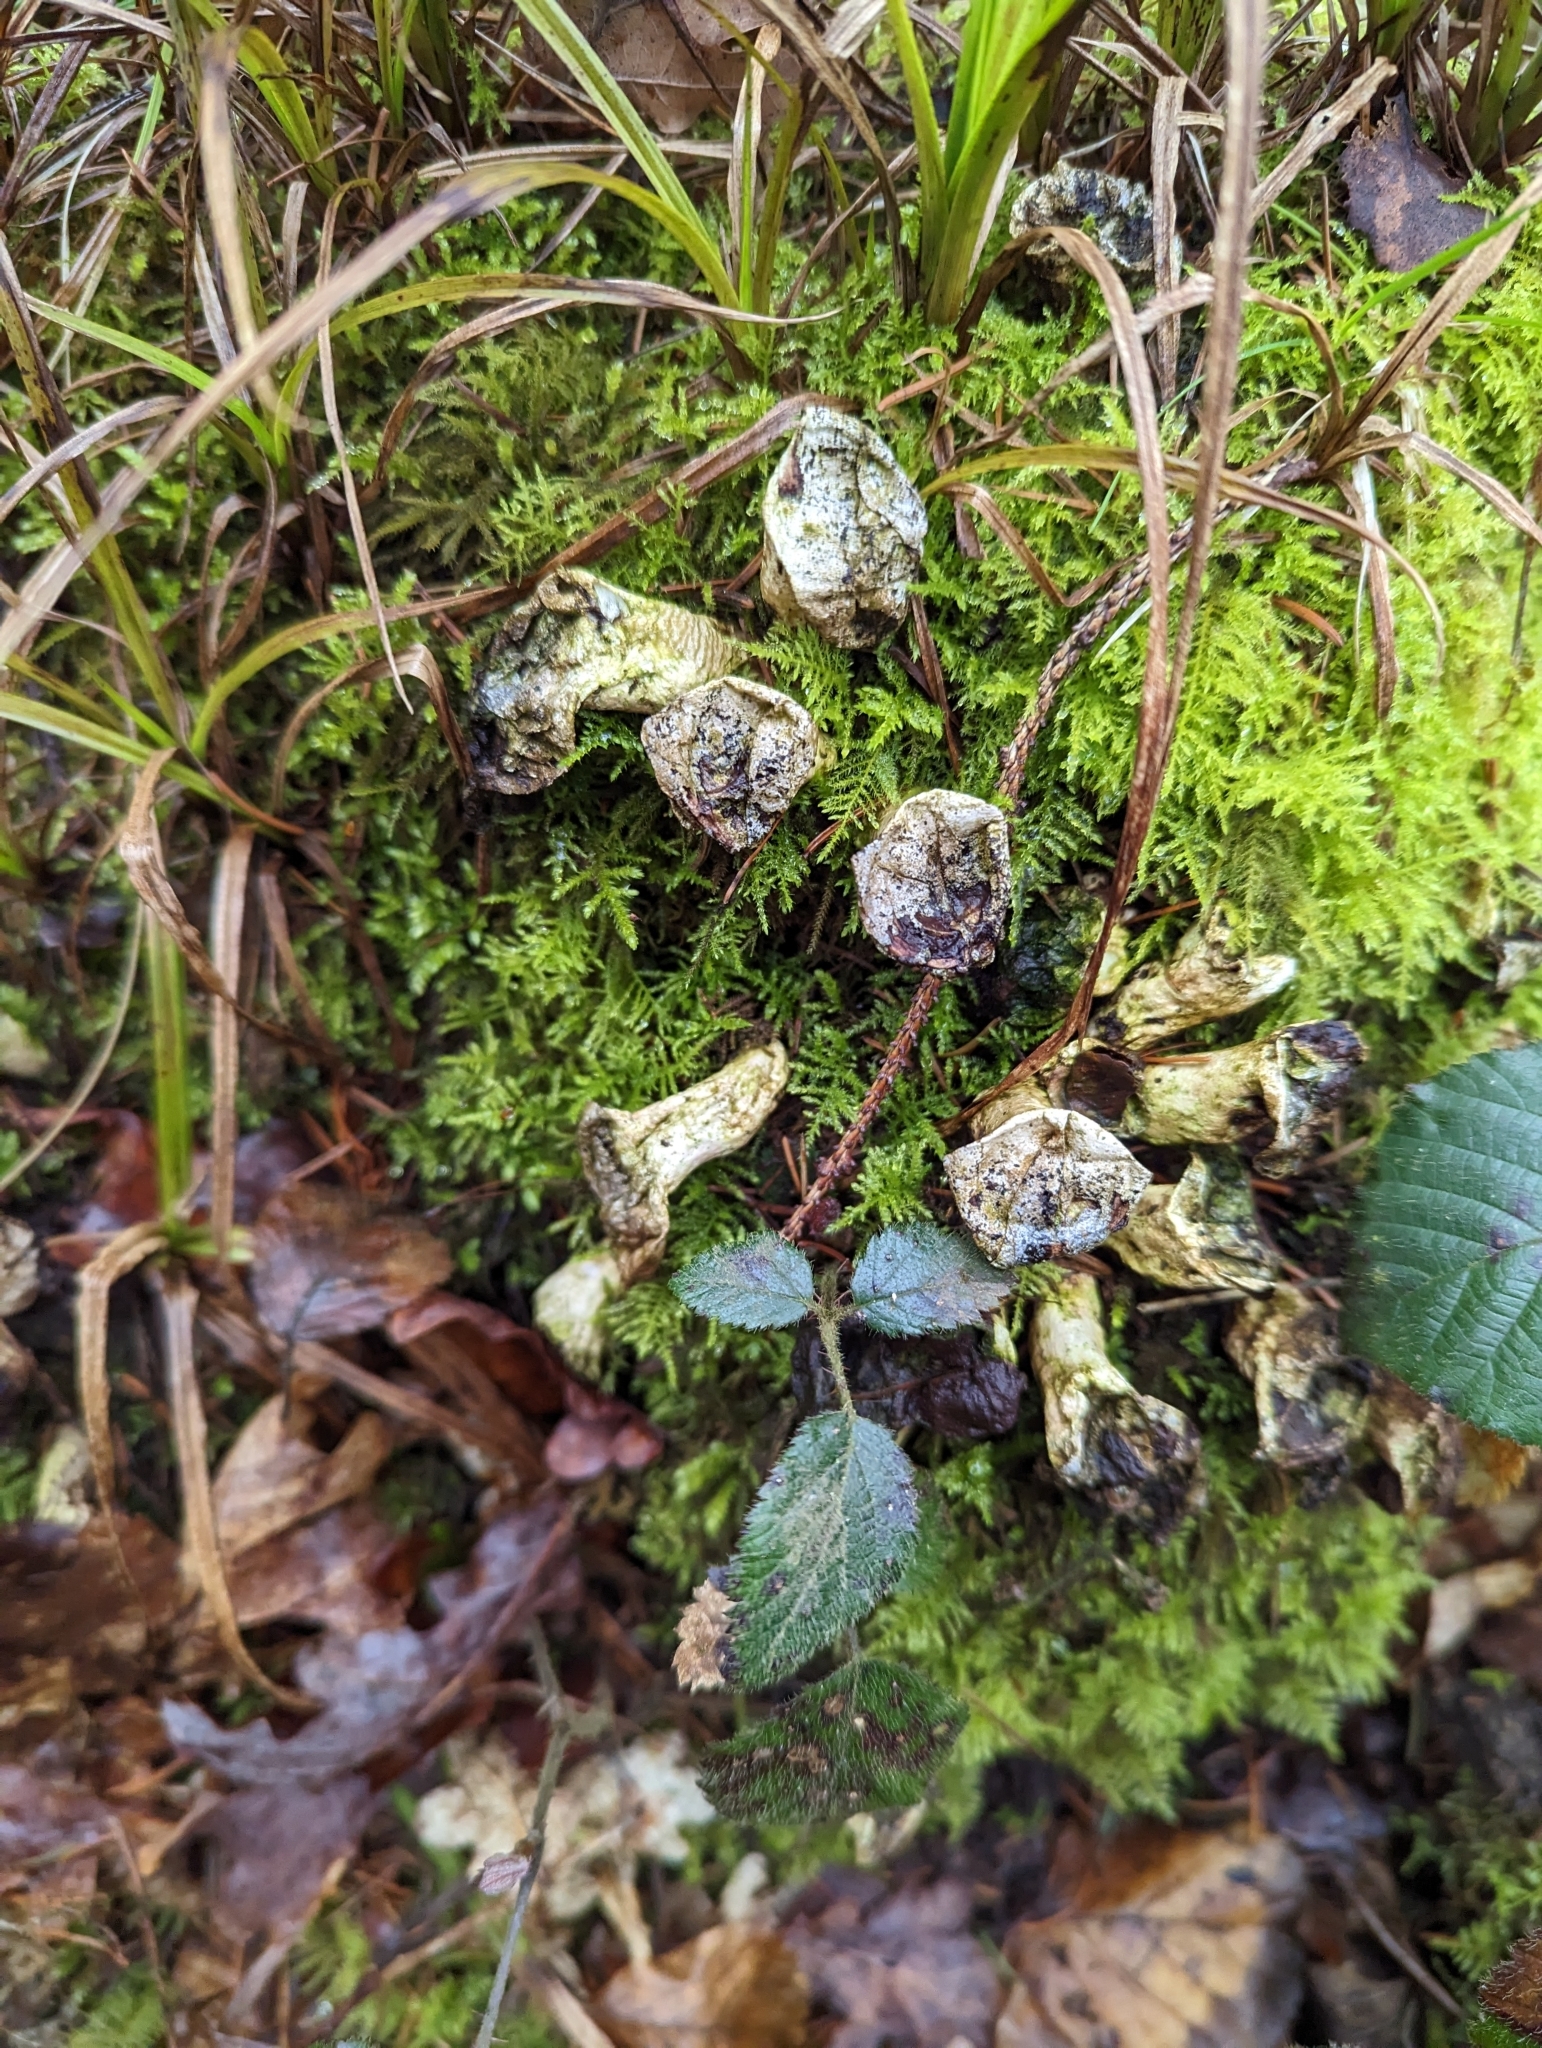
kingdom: Fungi
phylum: Basidiomycota
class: Agaricomycetes
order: Agaricales
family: Lycoperdaceae
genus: Apioperdon
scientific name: Apioperdon pyriforme
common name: Pear-shaped puffball
